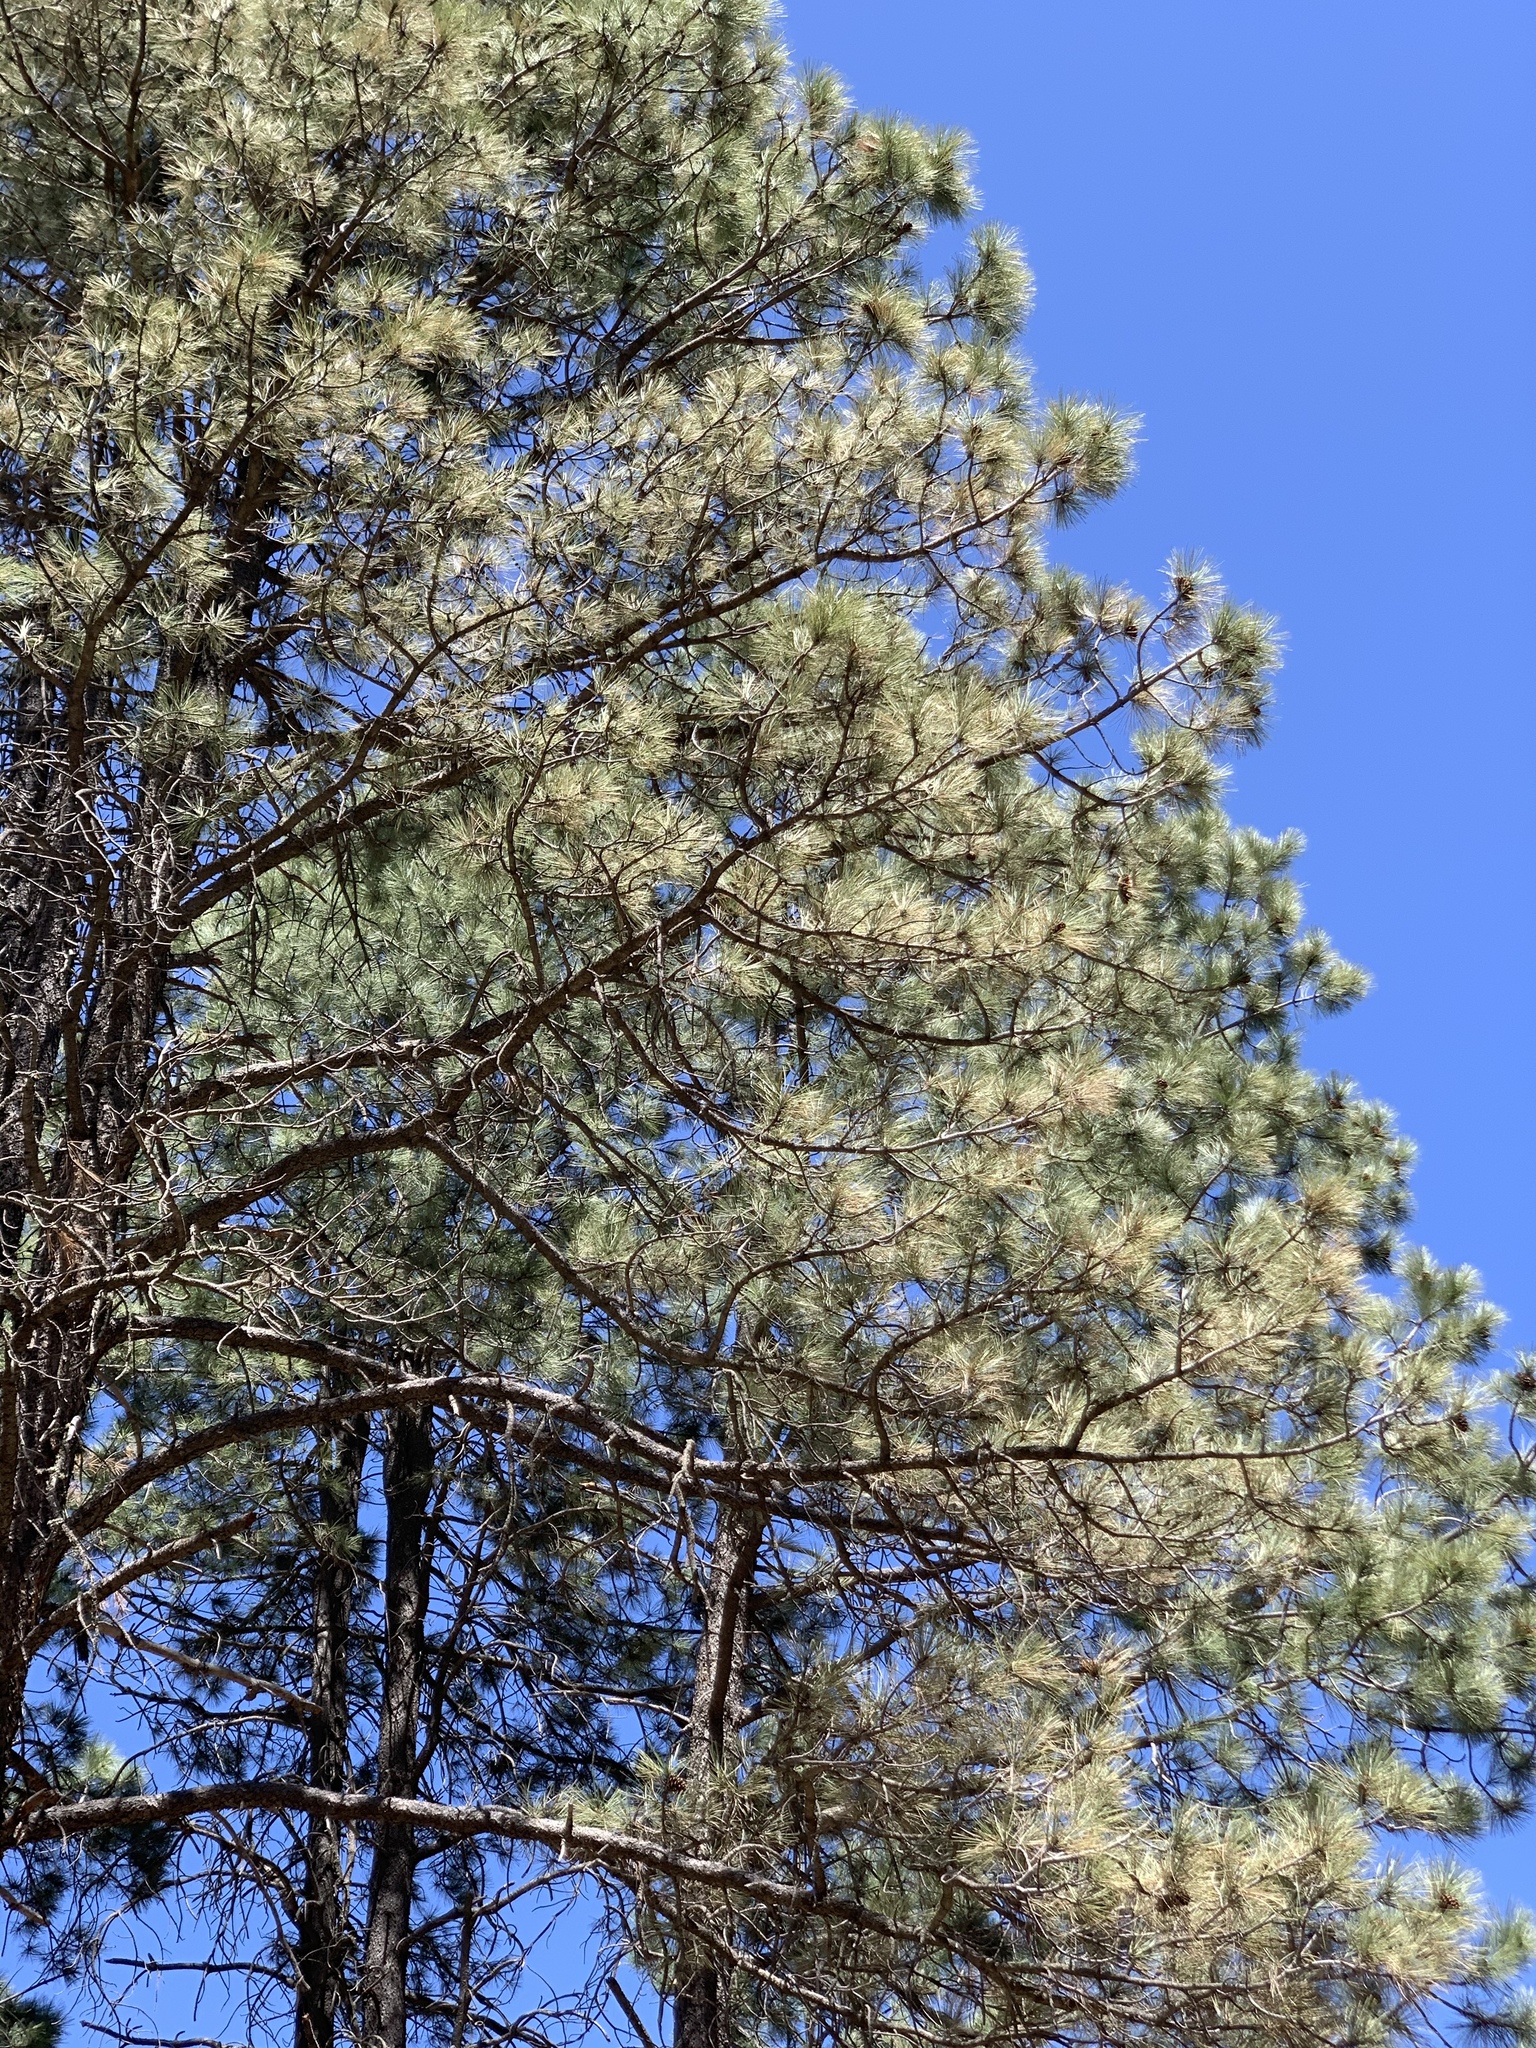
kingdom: Plantae
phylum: Tracheophyta
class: Pinopsida
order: Pinales
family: Pinaceae
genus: Pinus
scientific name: Pinus ponderosa
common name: Western yellow-pine
